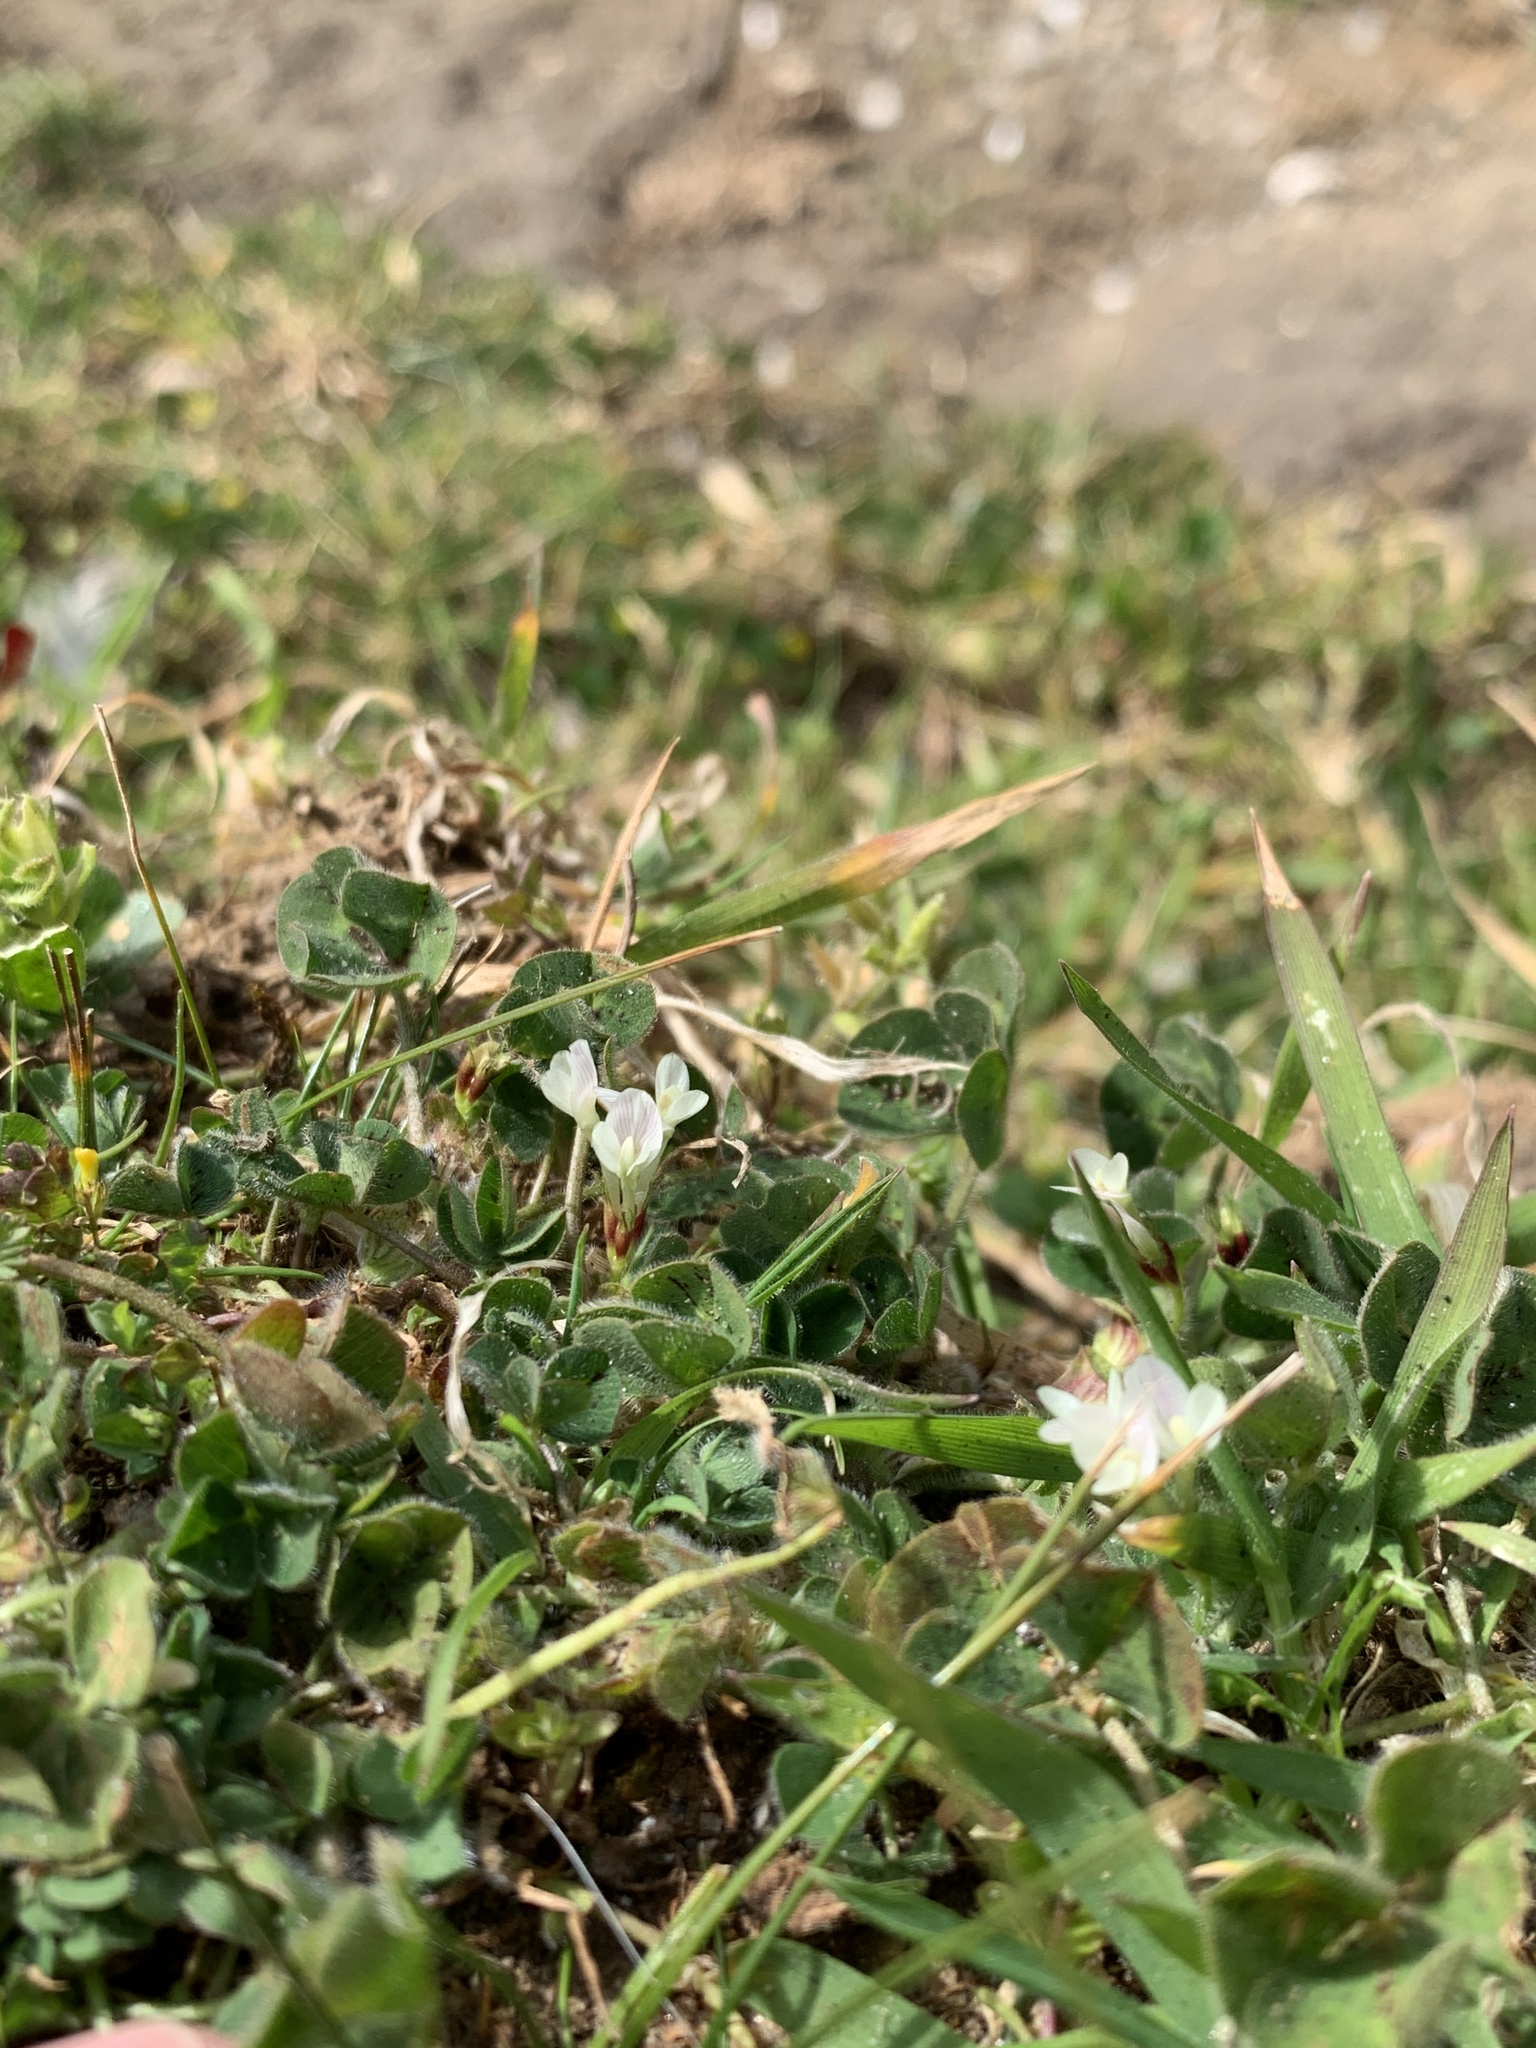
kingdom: Plantae
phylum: Tracheophyta
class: Magnoliopsida
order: Fabales
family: Fabaceae
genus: Trifolium
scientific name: Trifolium subterraneum
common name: Subterranean clover
